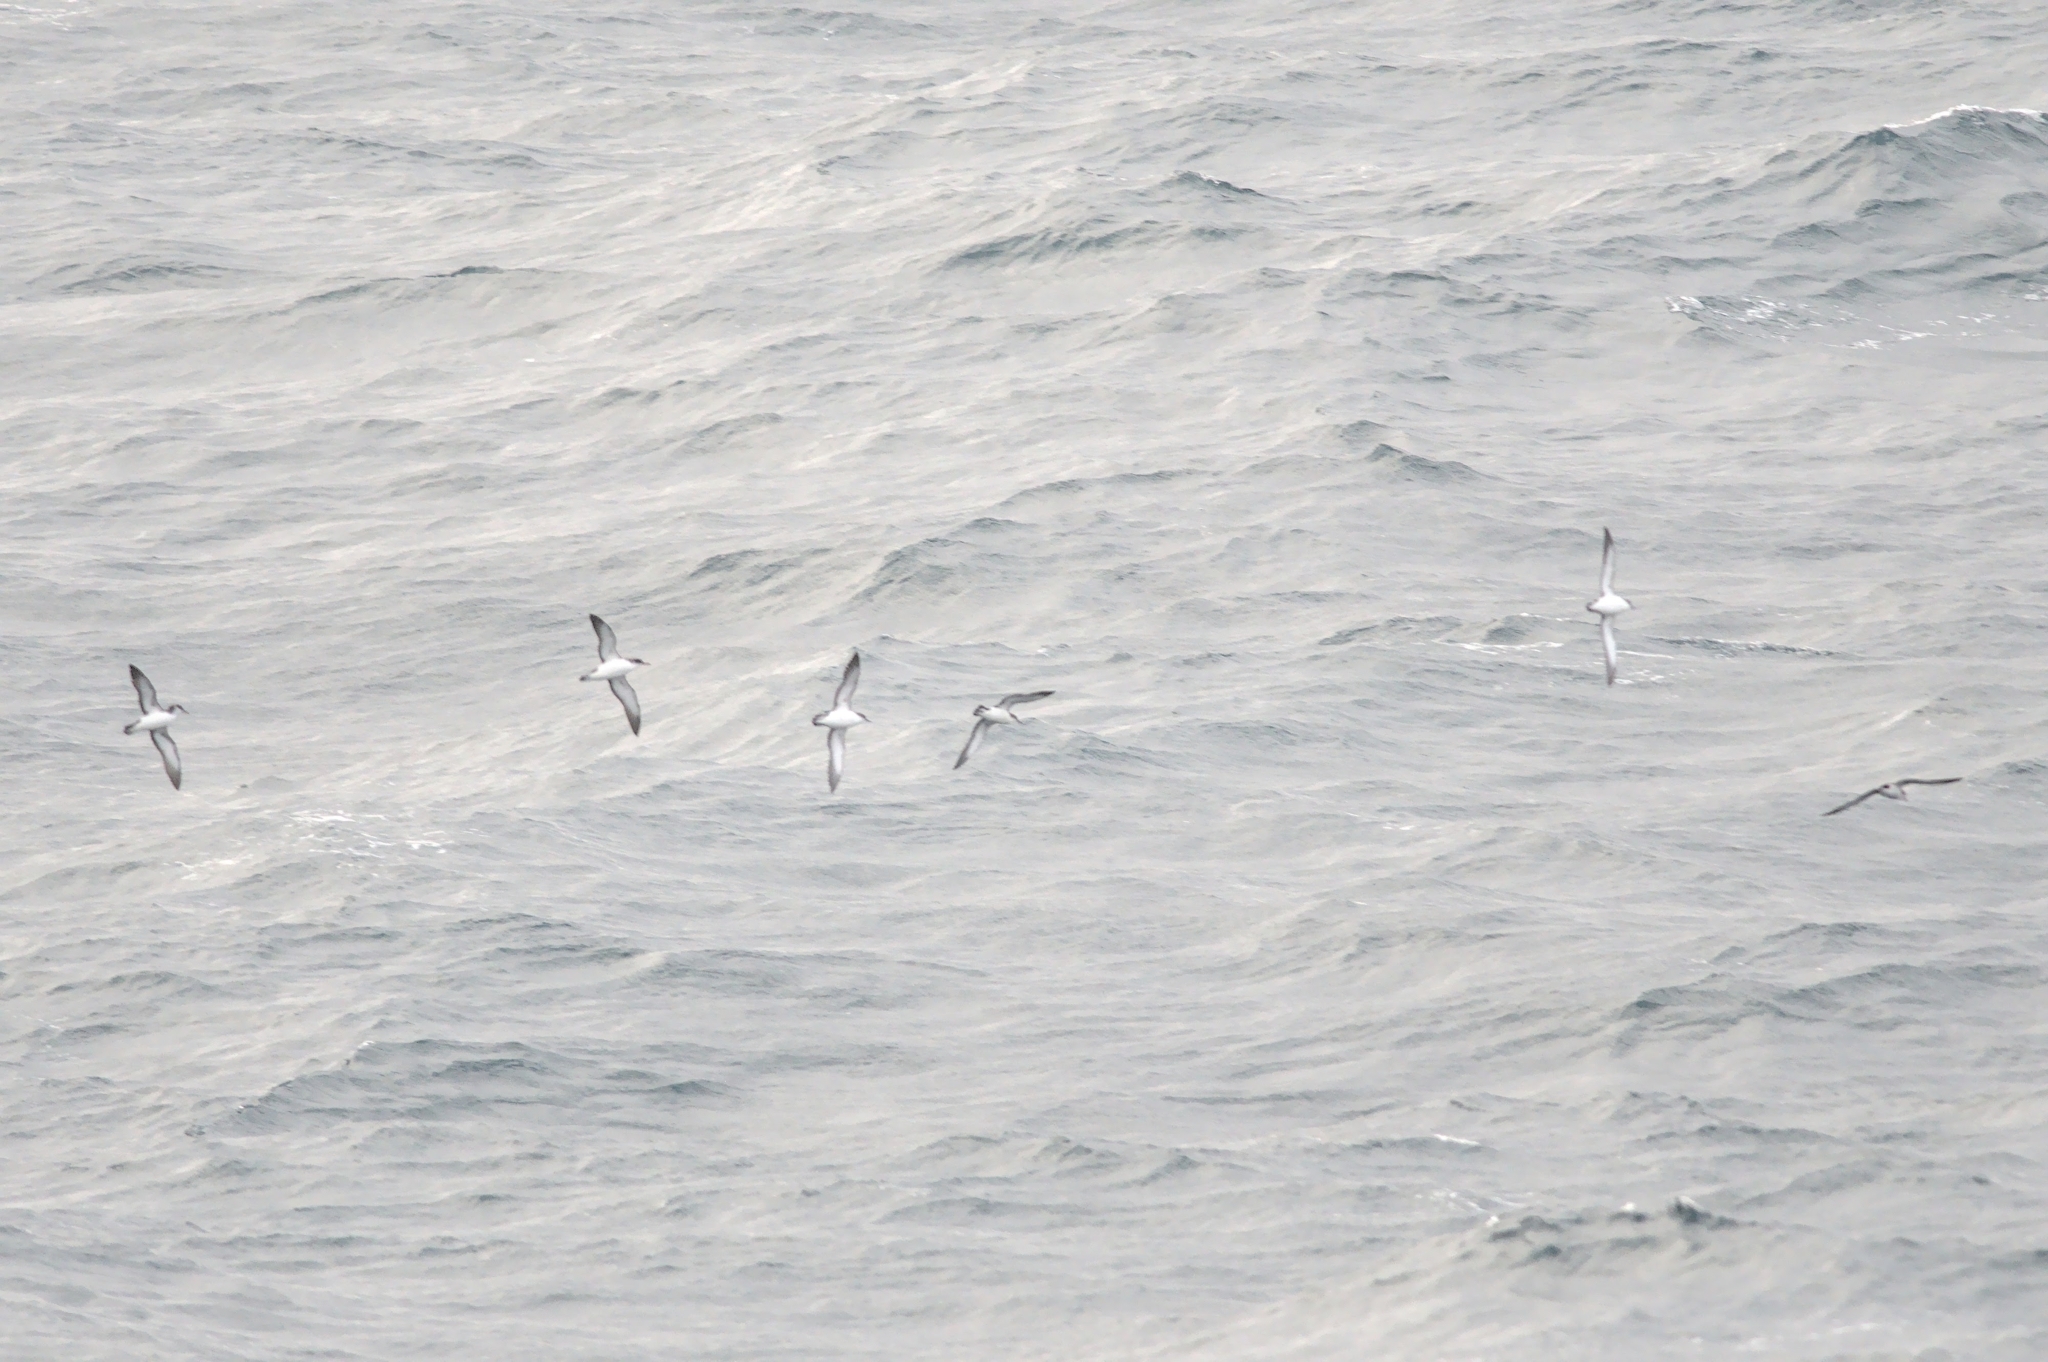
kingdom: Animalia
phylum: Chordata
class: Aves
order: Procellariiformes
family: Procellariidae
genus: Puffinus
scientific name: Puffinus puffinus
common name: Manx shearwater
